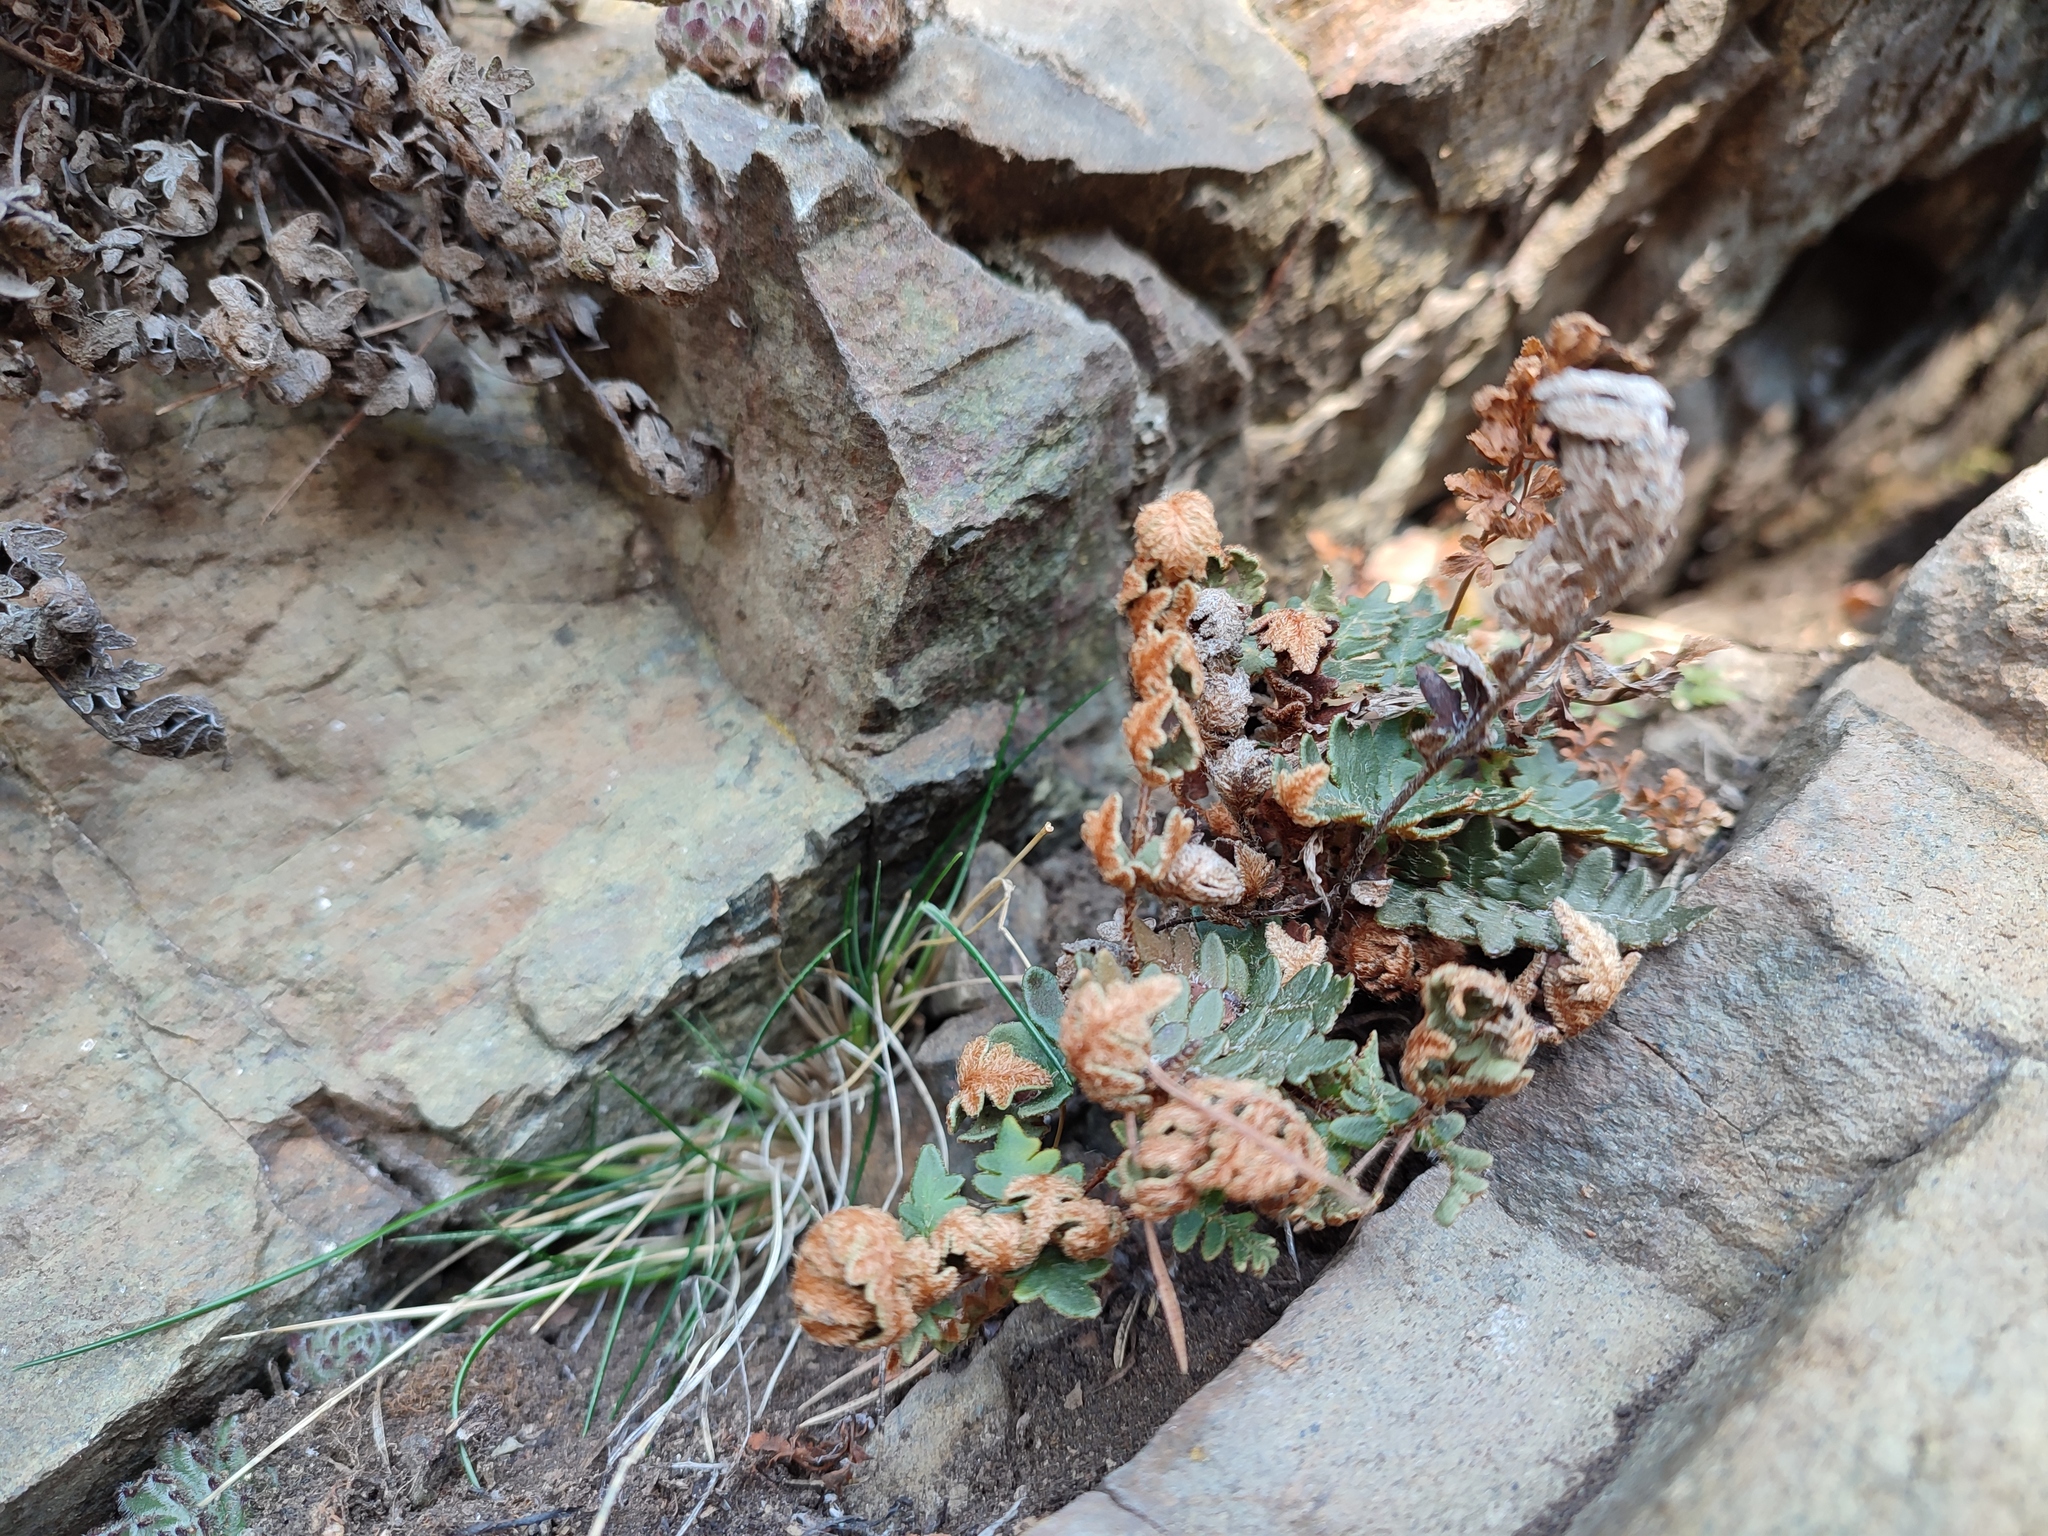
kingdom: Plantae
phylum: Tracheophyta
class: Polypodiopsida
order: Polypodiales
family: Pteridaceae
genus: Paragymnopteris
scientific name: Paragymnopteris marantae
